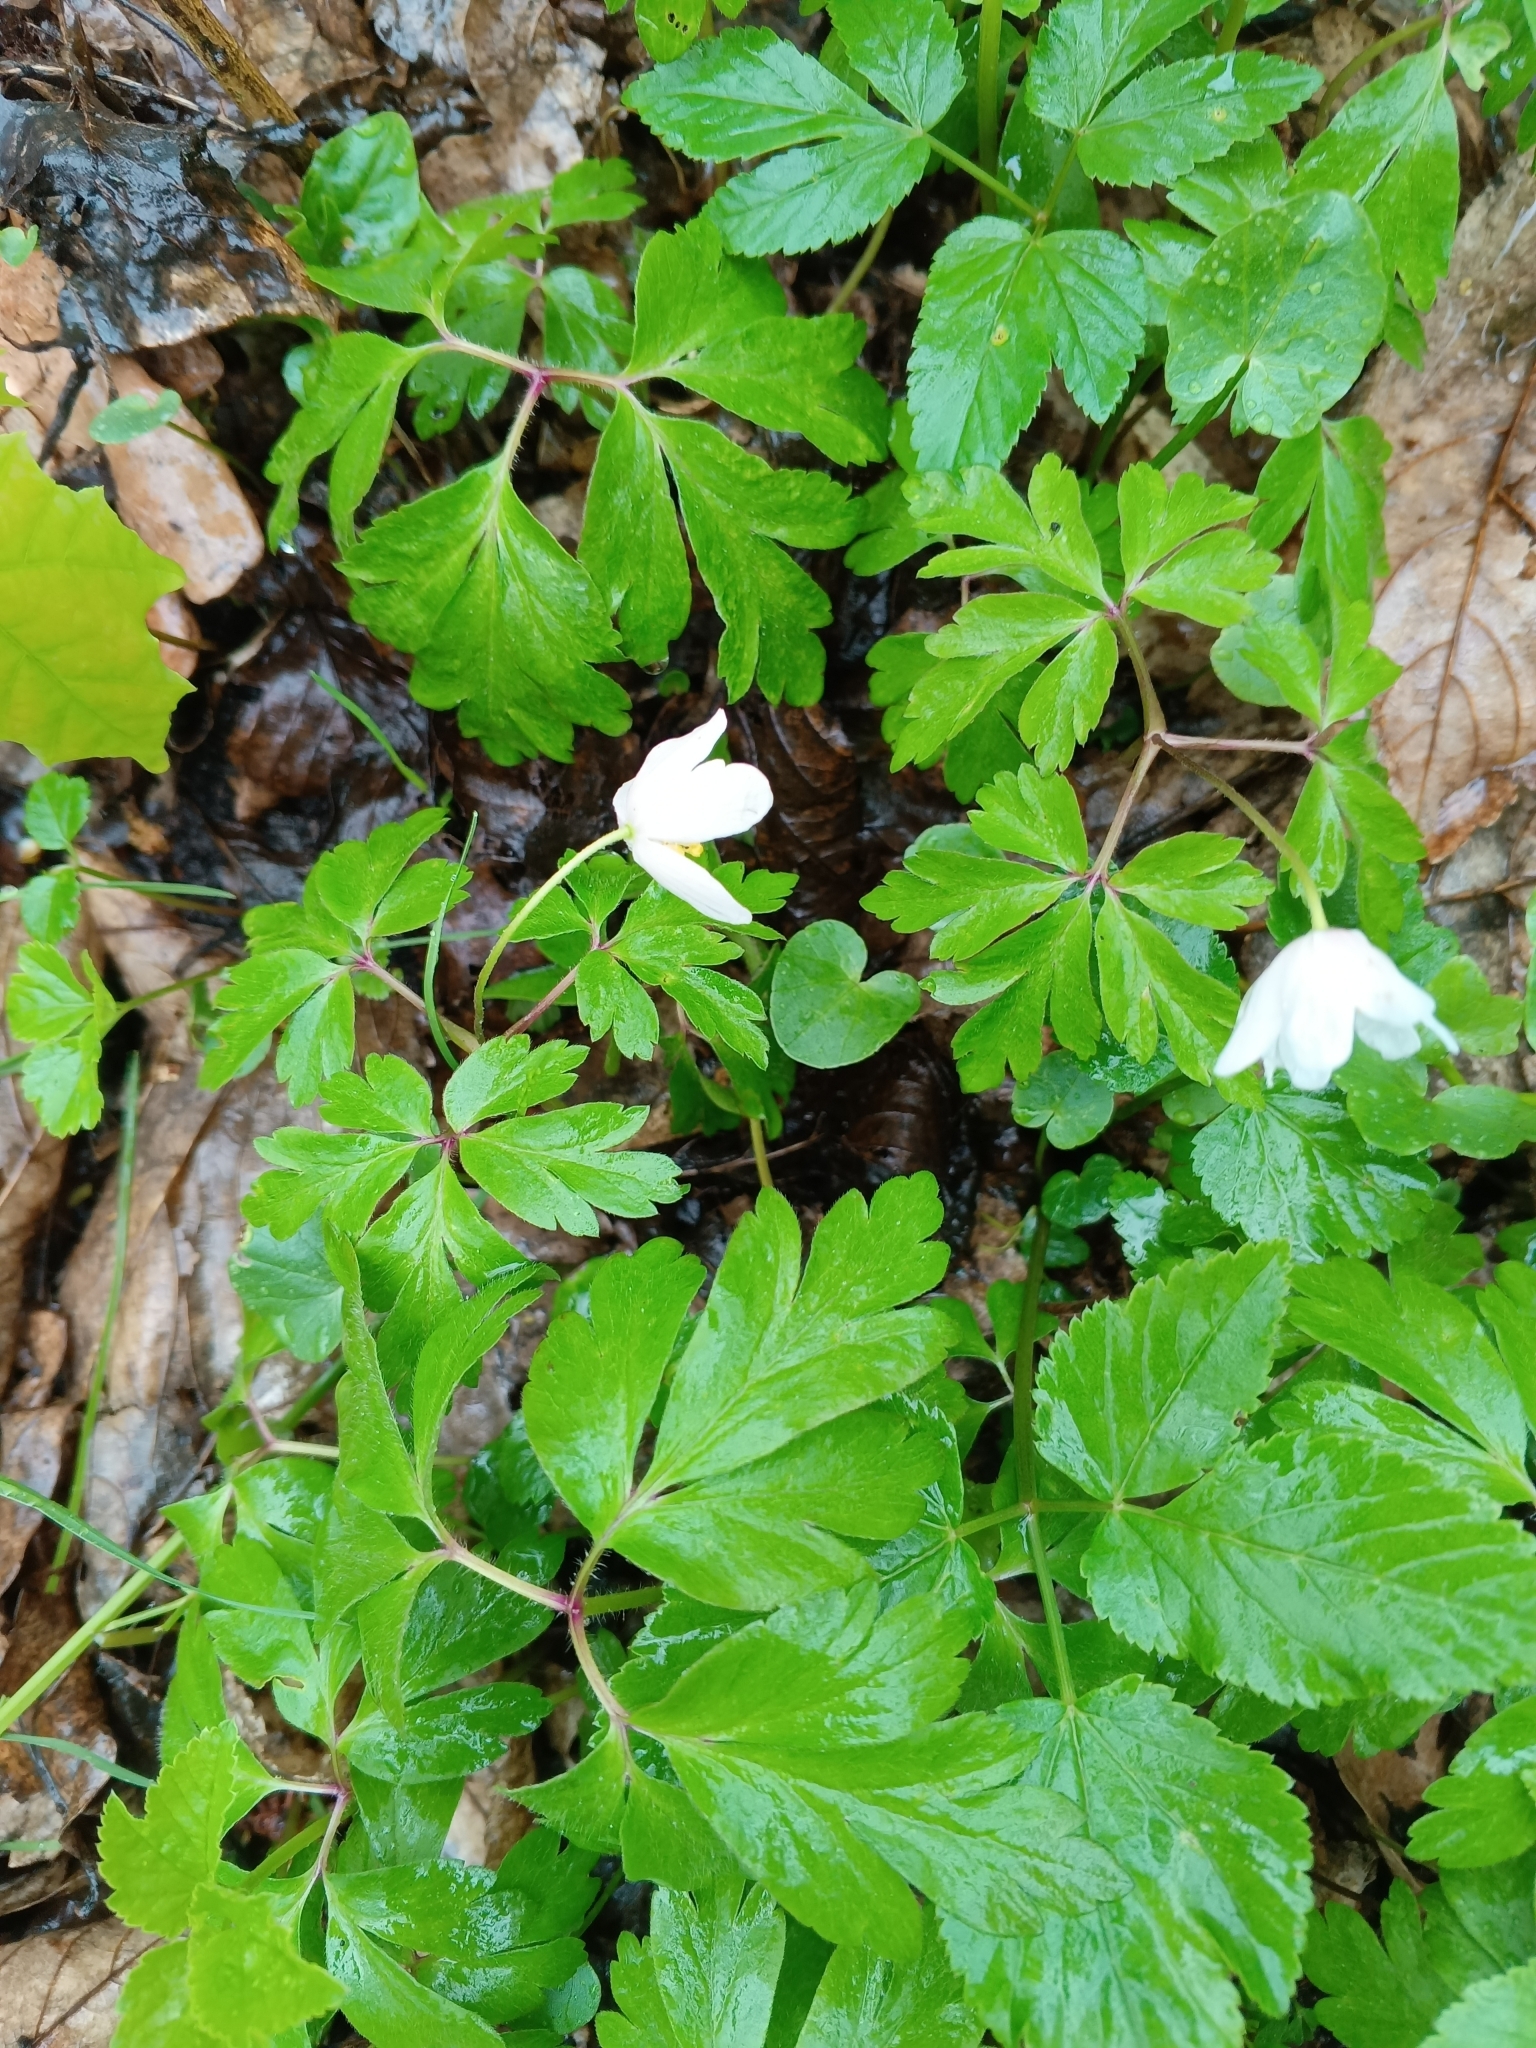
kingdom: Plantae
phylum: Tracheophyta
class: Magnoliopsida
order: Ranunculales
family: Ranunculaceae
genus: Anemone
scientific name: Anemone nemorosa
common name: Wood anemone
